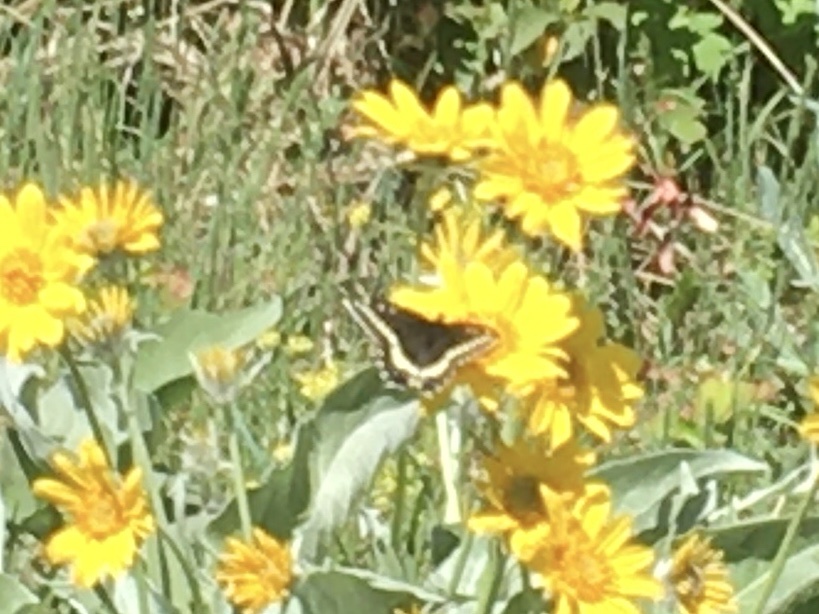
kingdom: Animalia
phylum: Arthropoda
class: Insecta
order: Lepidoptera
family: Papilionidae
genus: Papilio
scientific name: Papilio indra
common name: Cliff swallowtail
